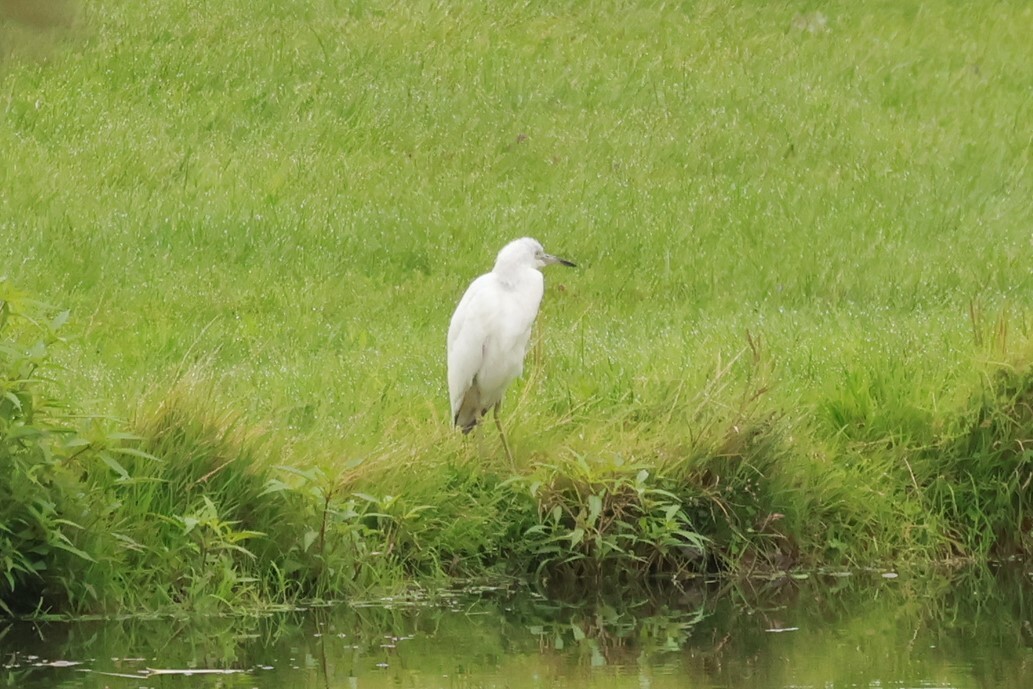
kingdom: Animalia
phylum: Chordata
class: Aves
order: Pelecaniformes
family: Ardeidae
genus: Egretta
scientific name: Egretta caerulea
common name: Little blue heron
